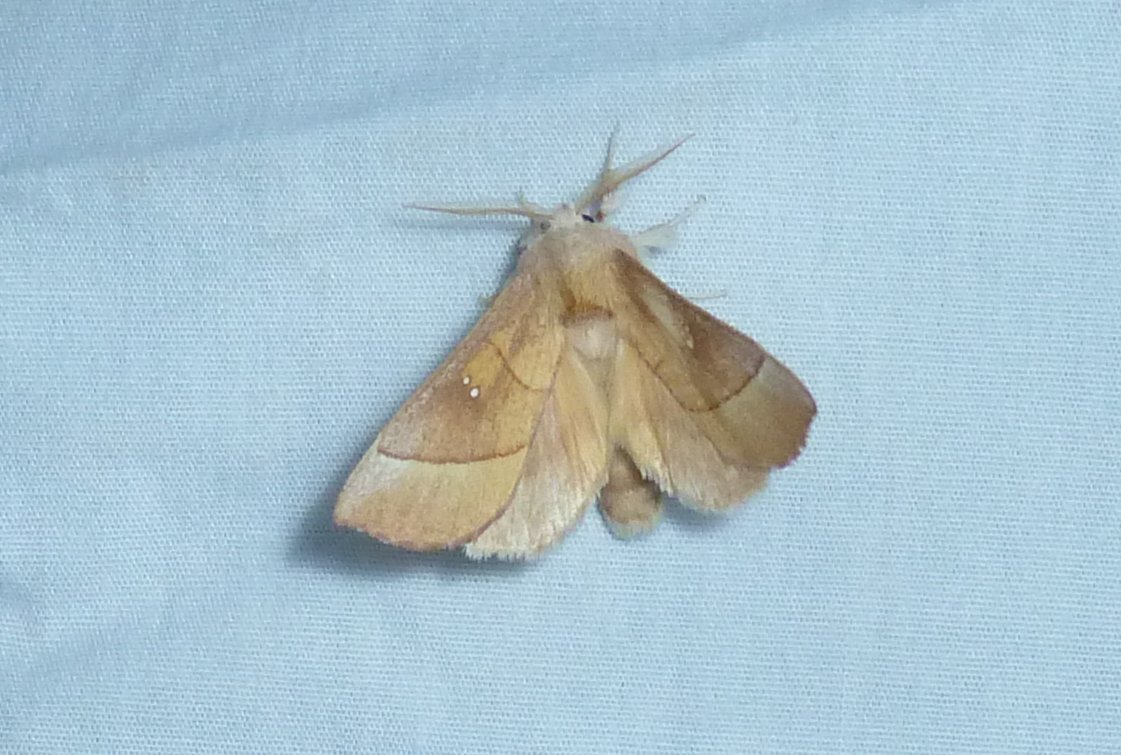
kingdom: Animalia
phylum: Arthropoda
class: Insecta
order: Lepidoptera
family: Notodontidae
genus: Nadata
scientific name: Nadata gibbosa
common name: White-dotted prominent
